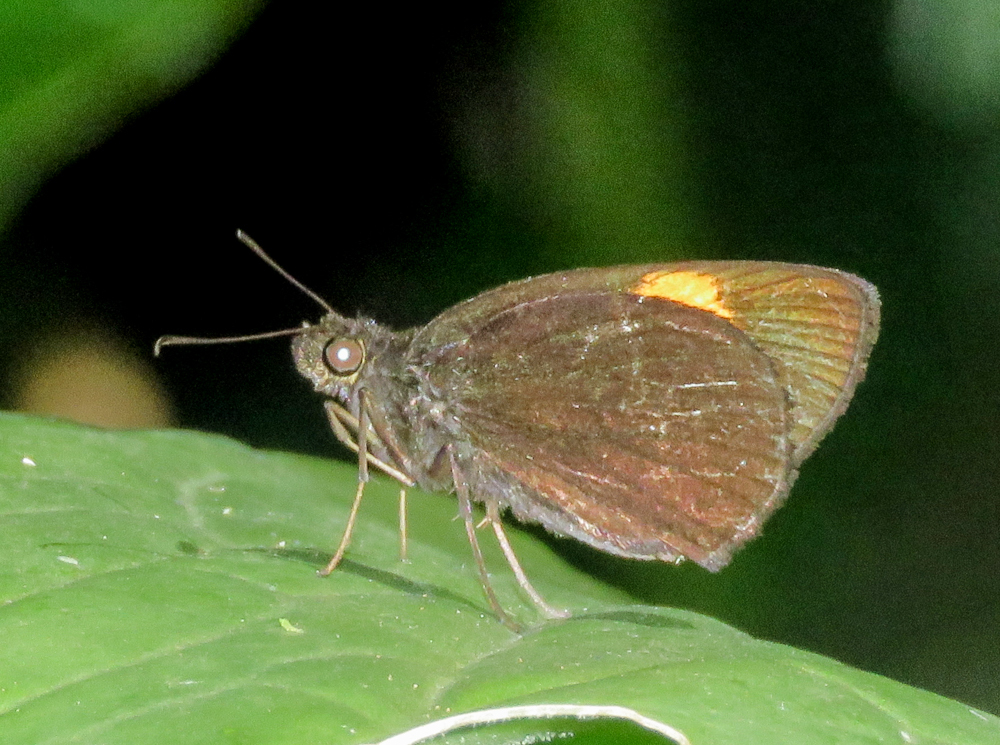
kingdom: Animalia
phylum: Arthropoda
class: Insecta
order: Lepidoptera
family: Hesperiidae
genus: Koruthaialos
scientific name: Koruthaialos sindu
